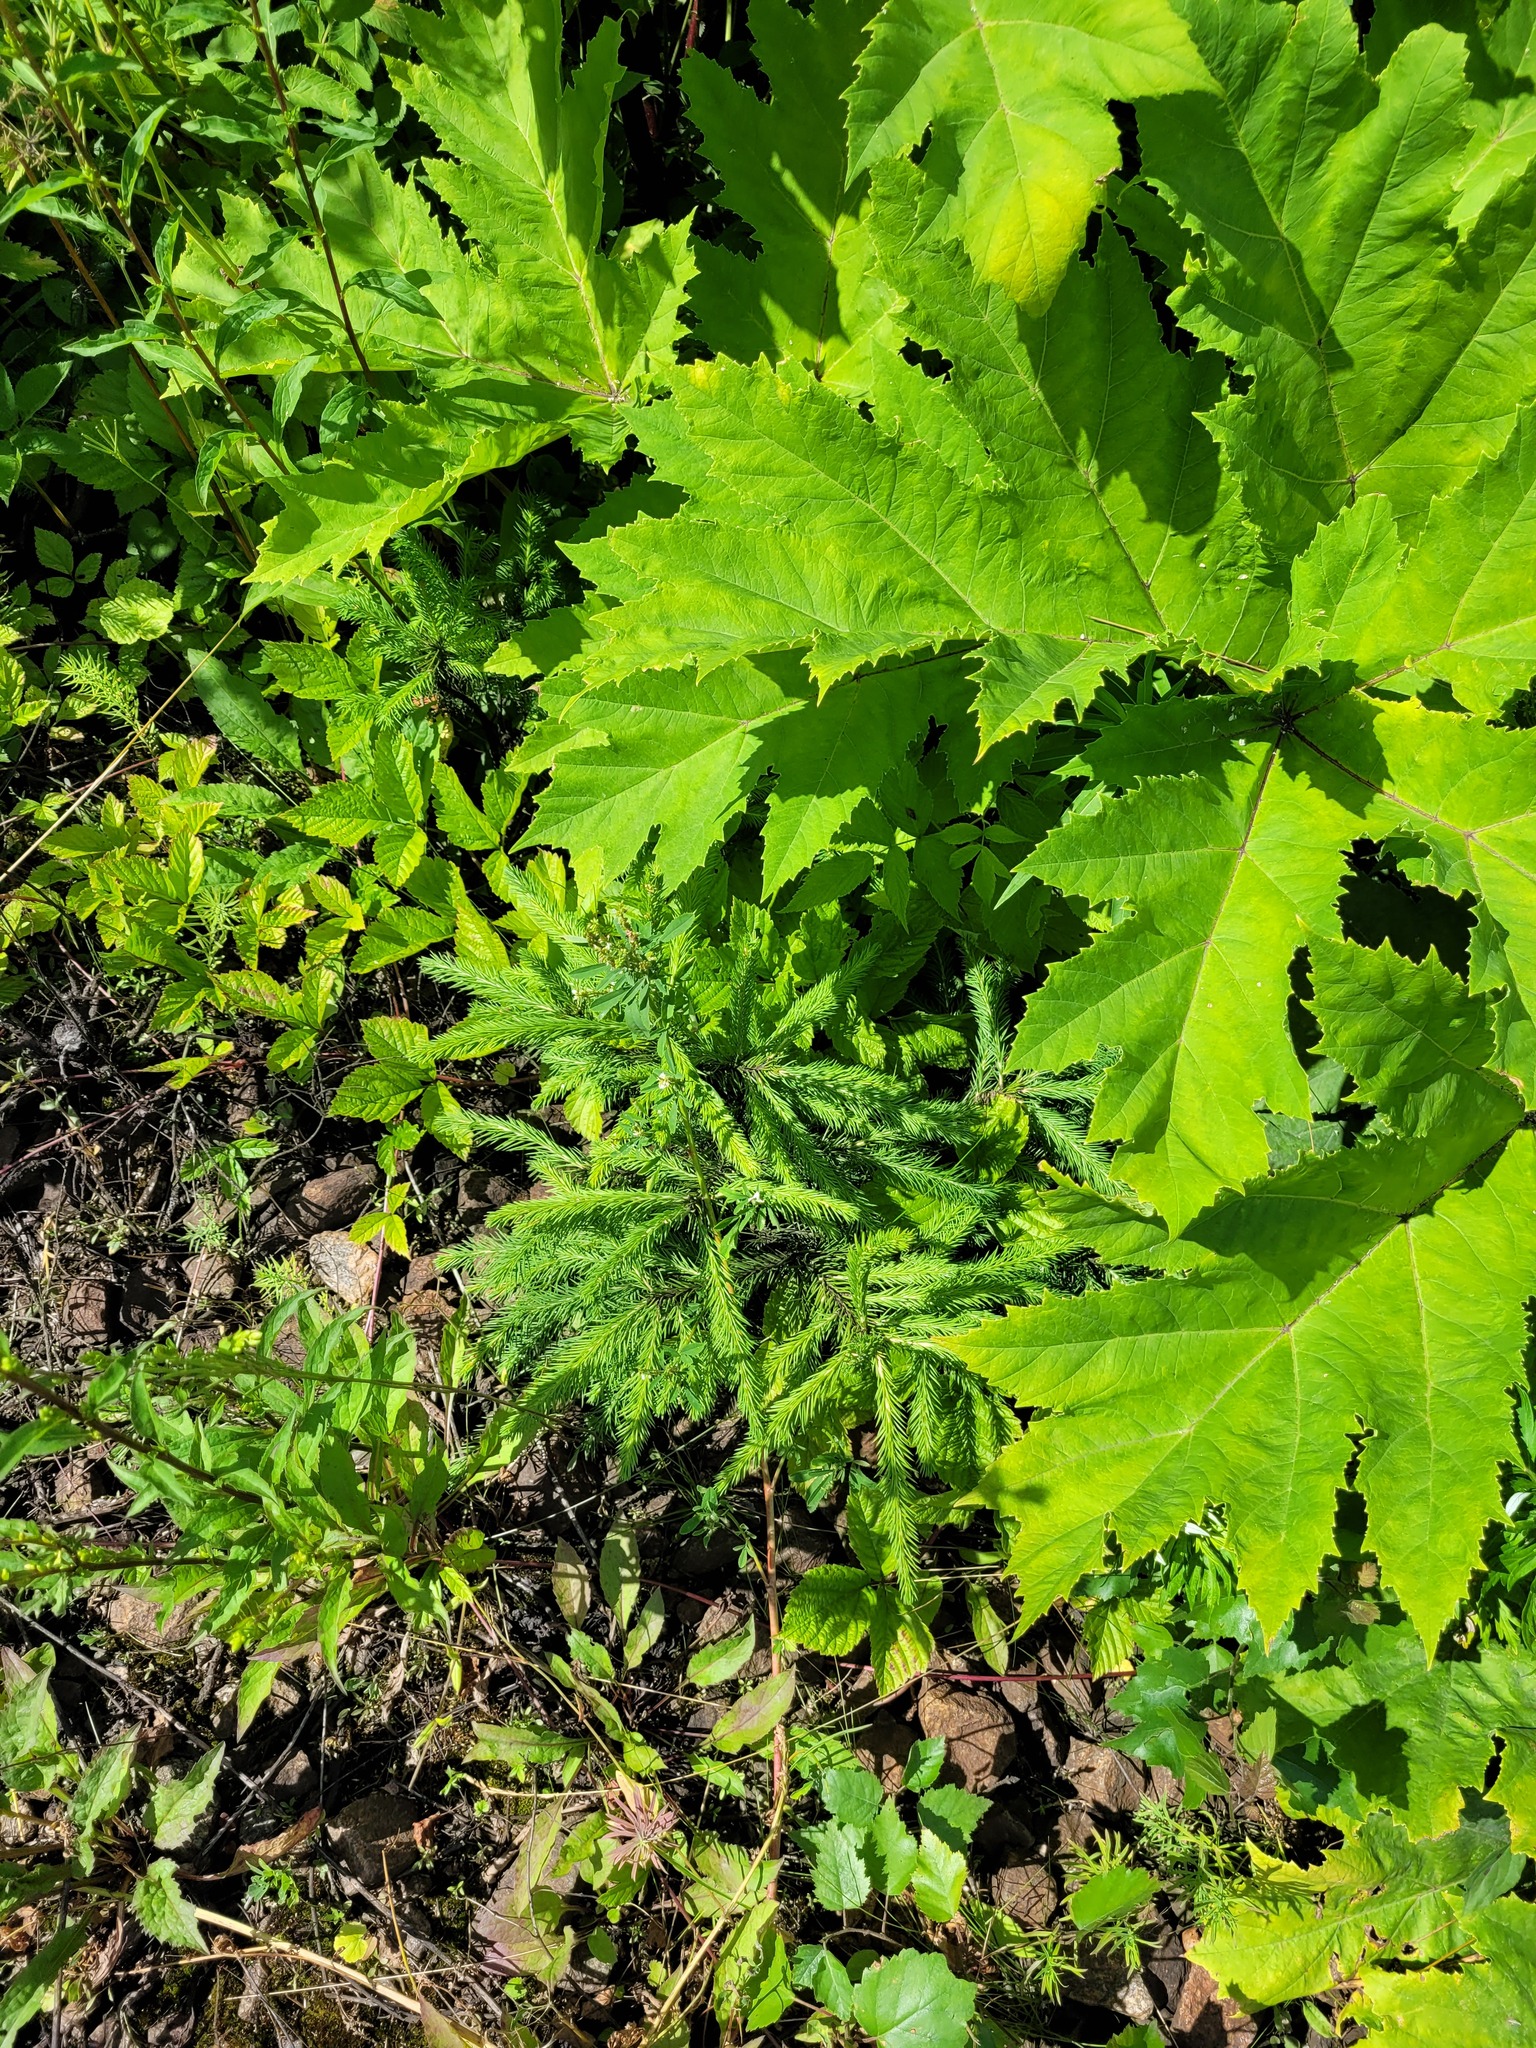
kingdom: Plantae
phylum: Tracheophyta
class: Pinopsida
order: Pinales
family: Pinaceae
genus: Picea
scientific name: Picea abies
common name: Norway spruce
